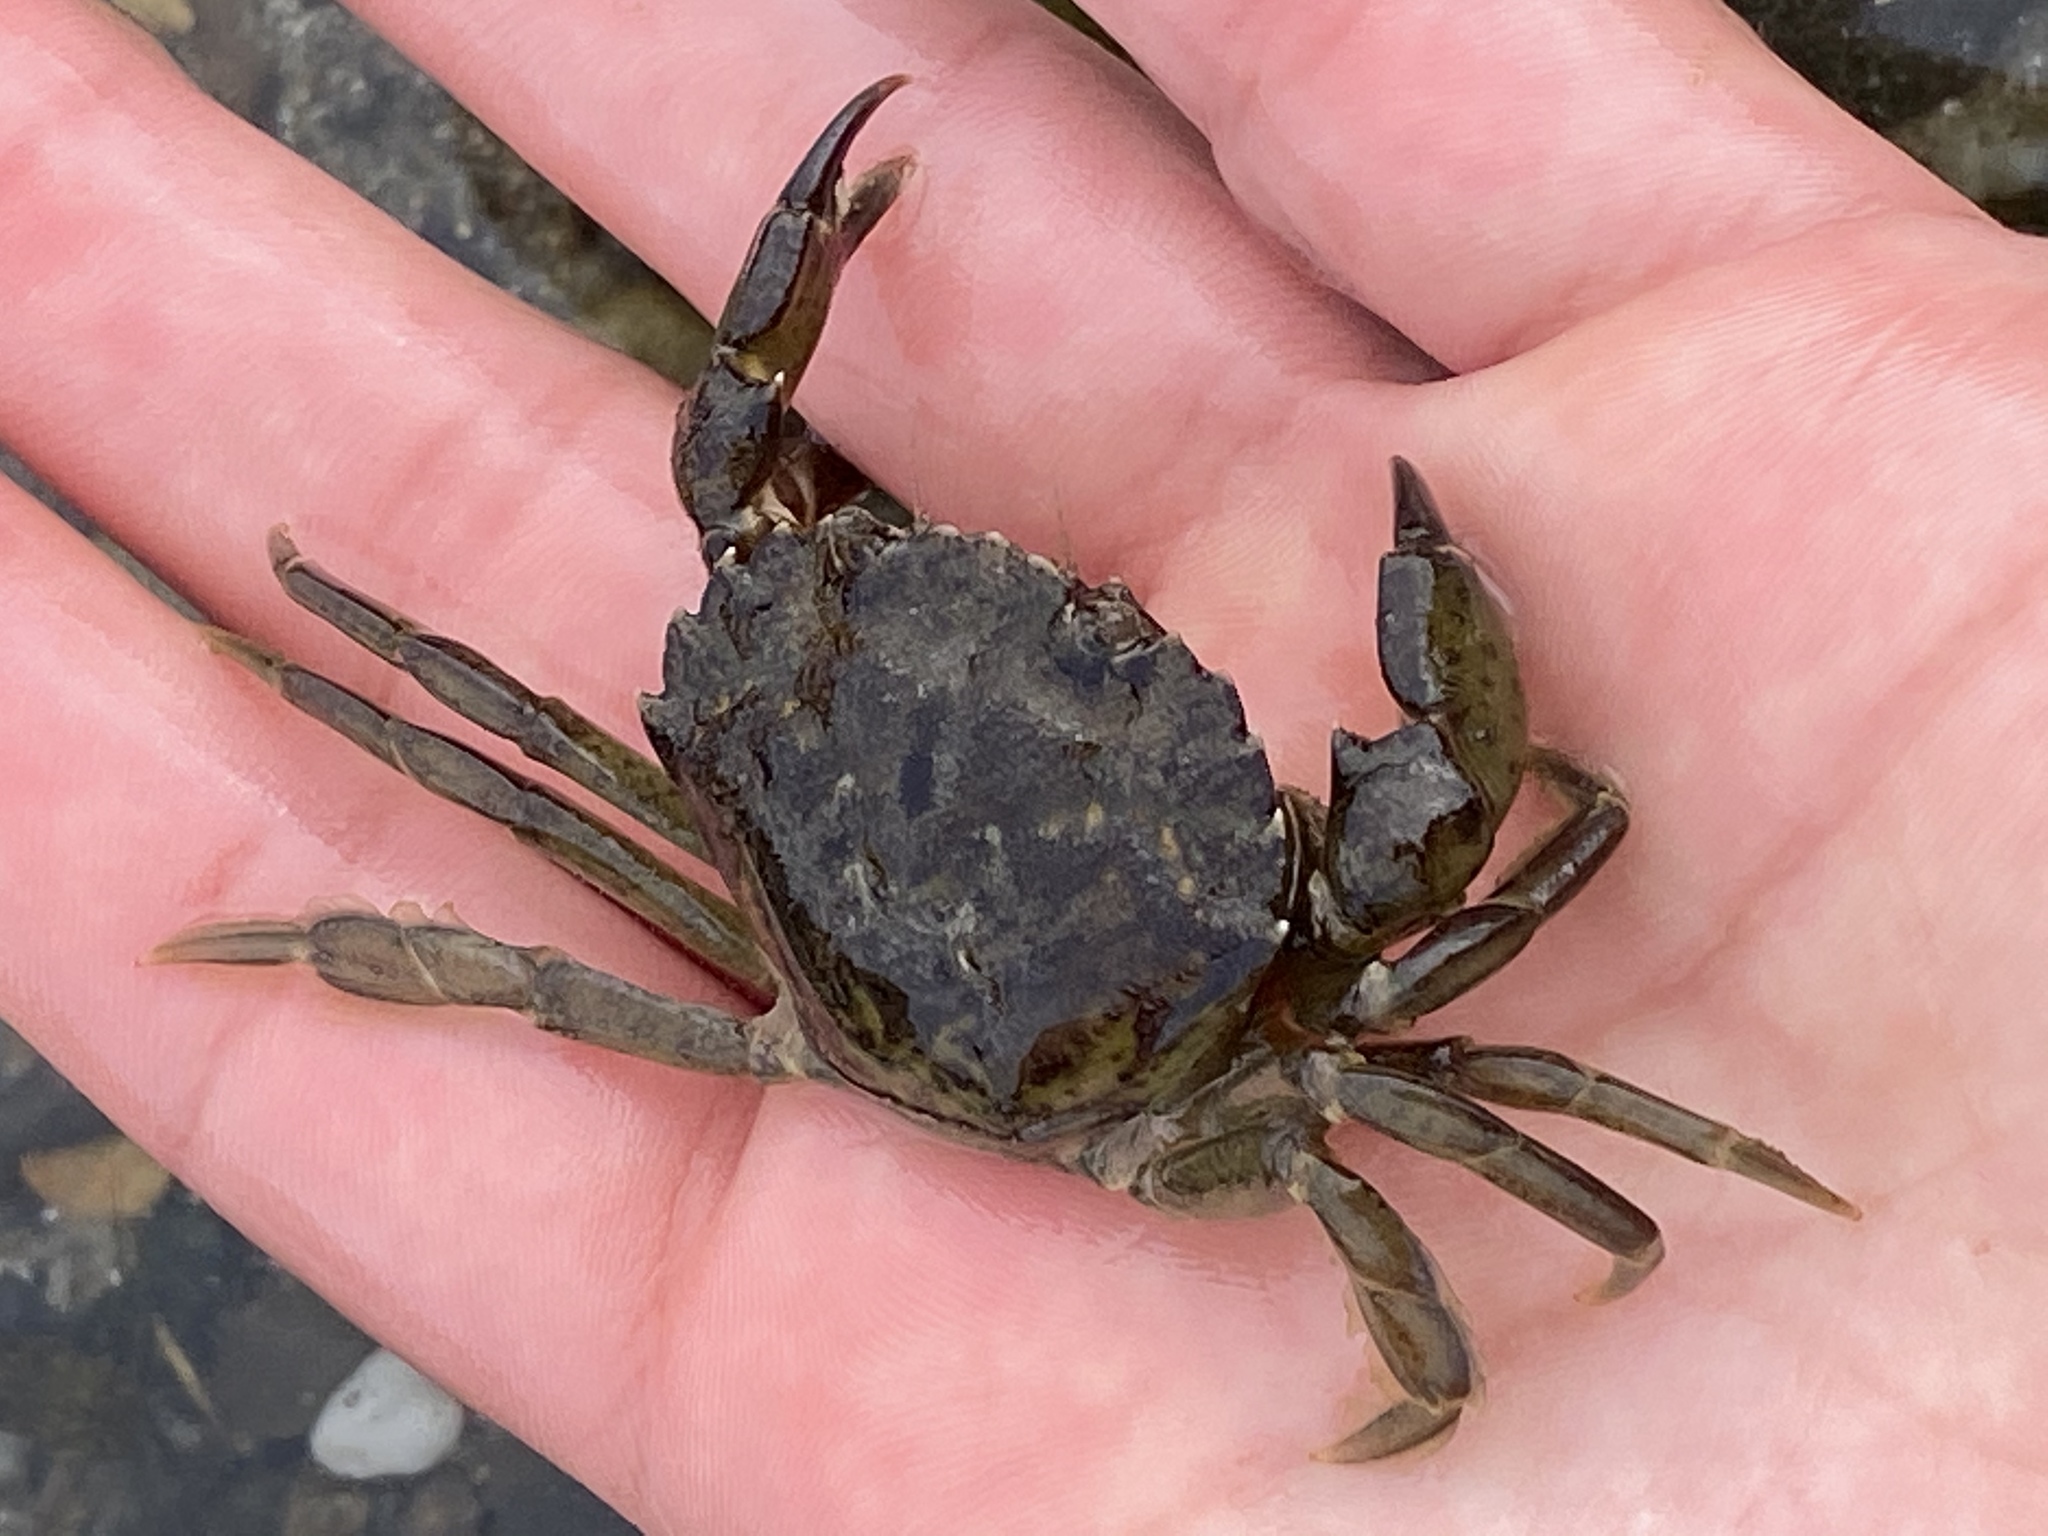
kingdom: Animalia
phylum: Arthropoda
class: Malacostraca
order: Decapoda
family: Carcinidae
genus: Carcinus
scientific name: Carcinus maenas
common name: European green crab
